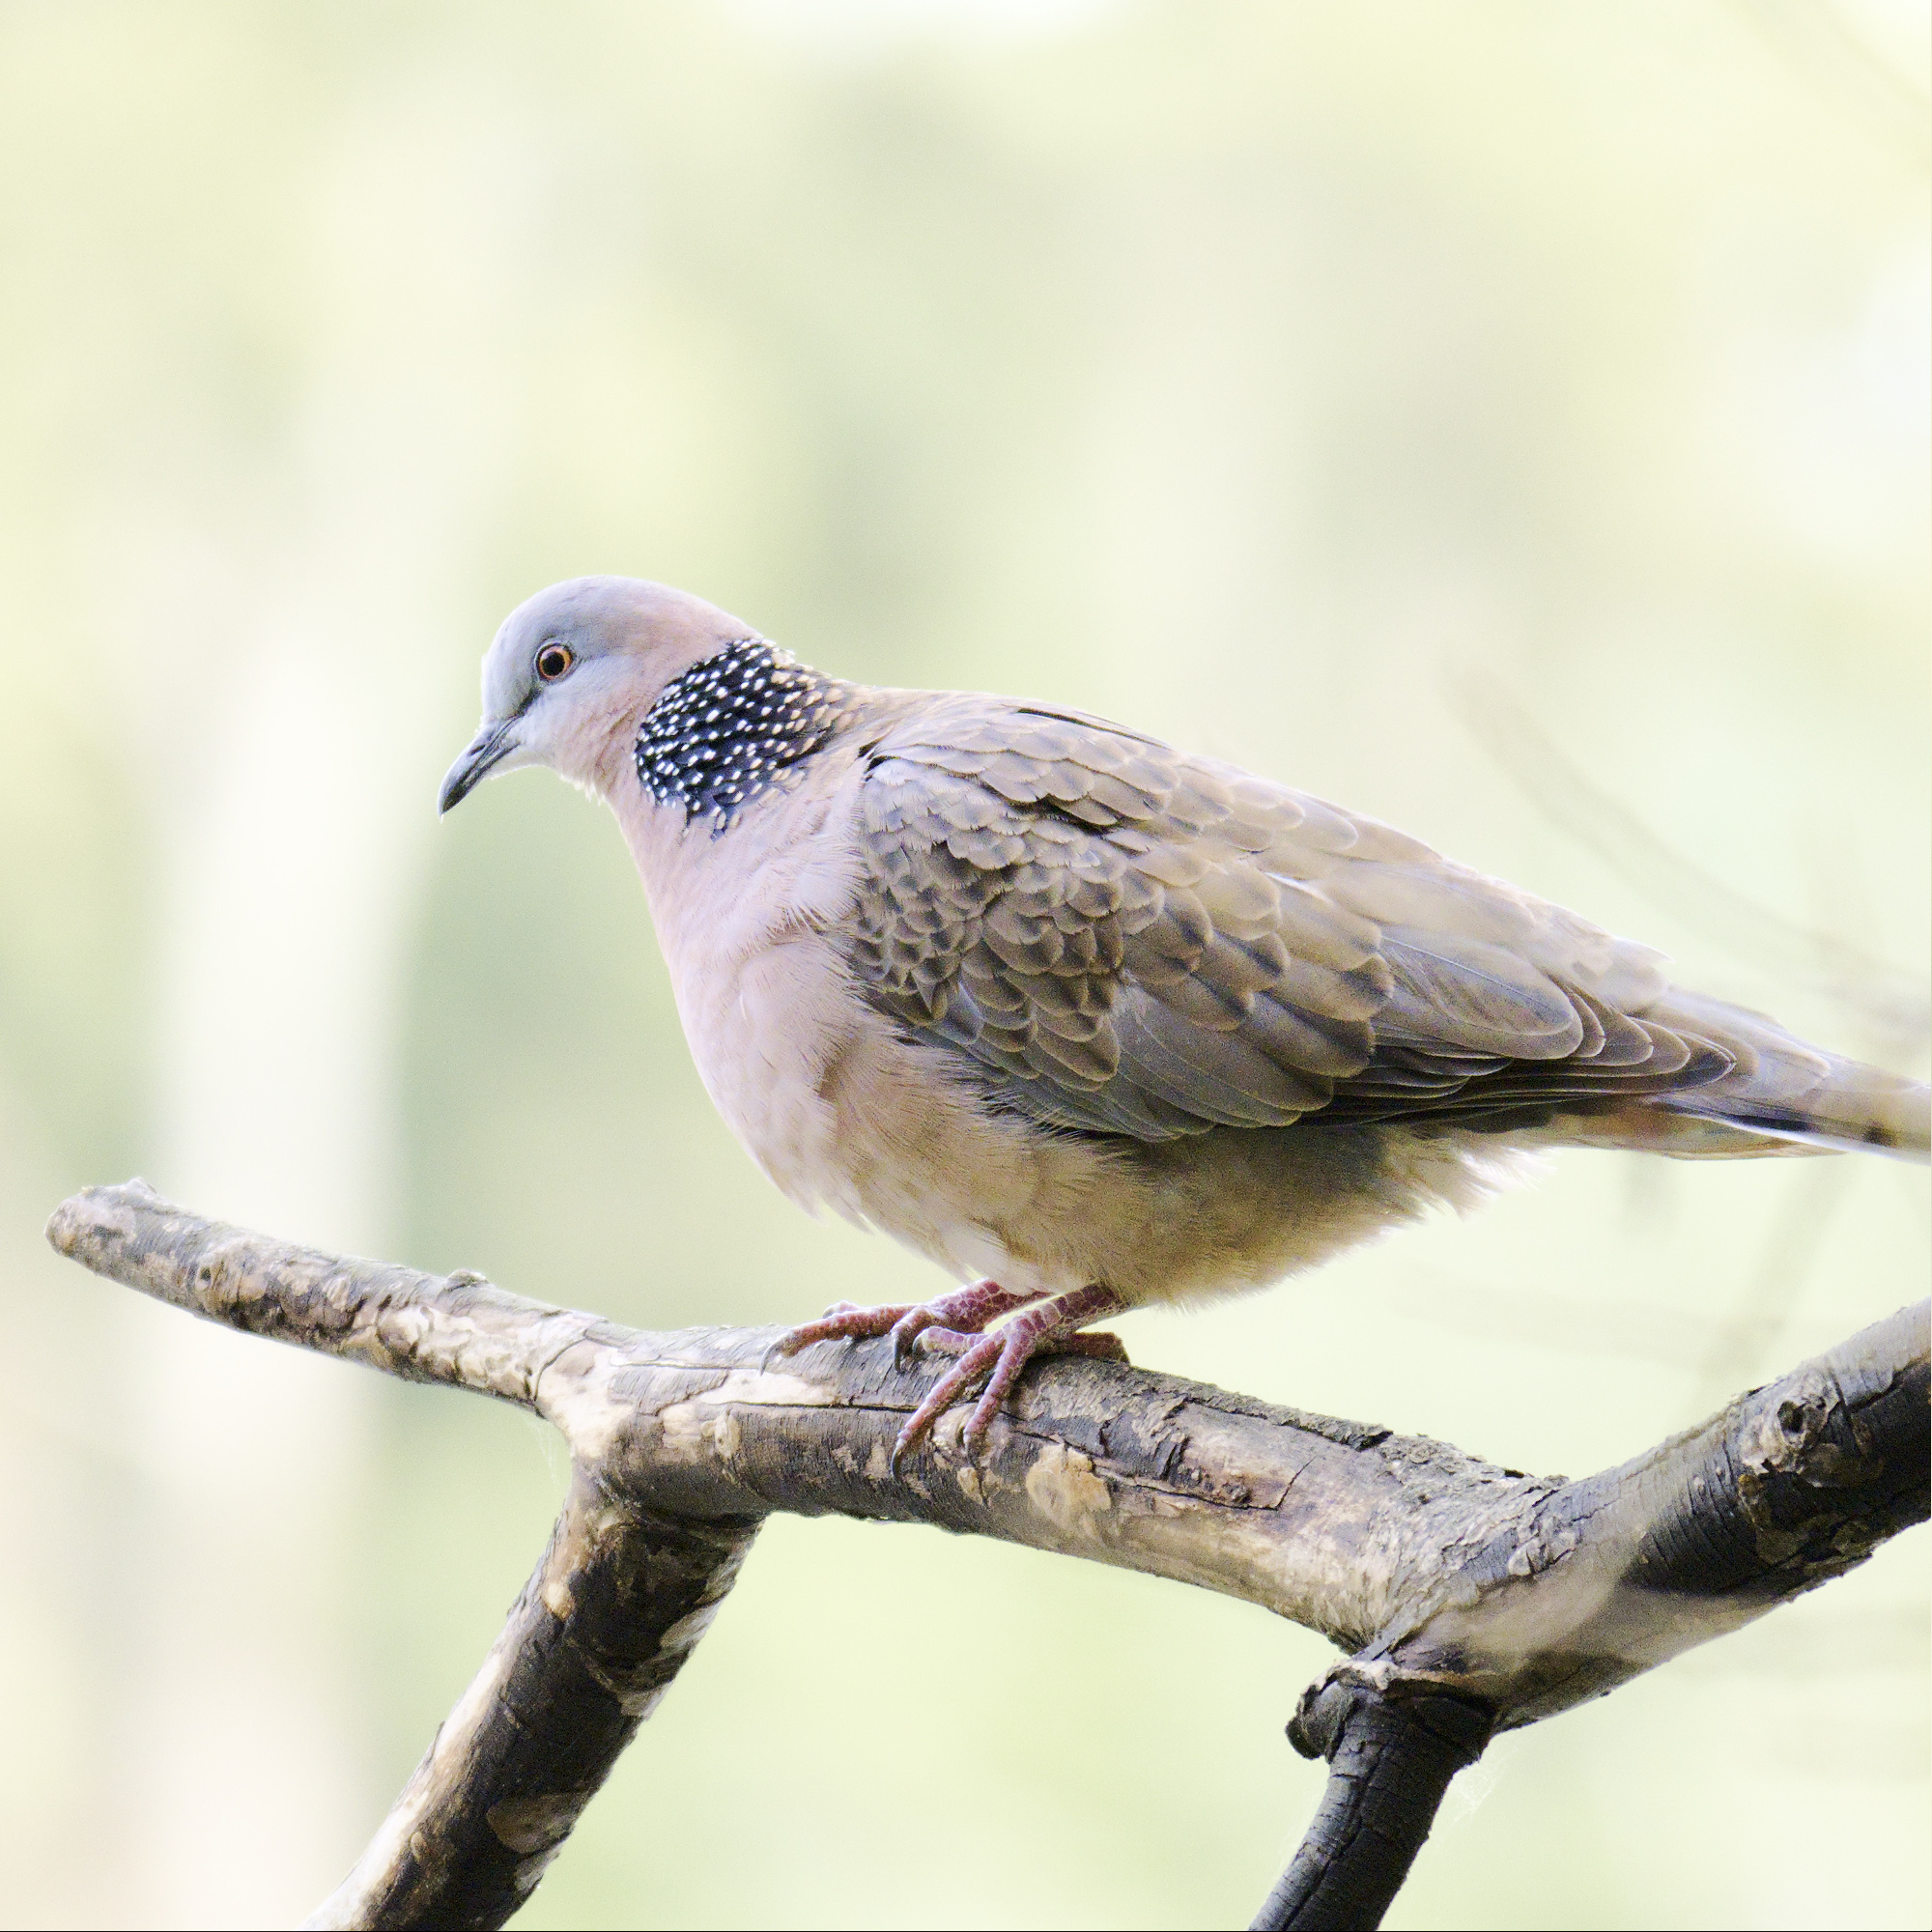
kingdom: Animalia
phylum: Chordata
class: Aves
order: Columbiformes
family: Columbidae
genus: Spilopelia
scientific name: Spilopelia chinensis
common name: Spotted dove
